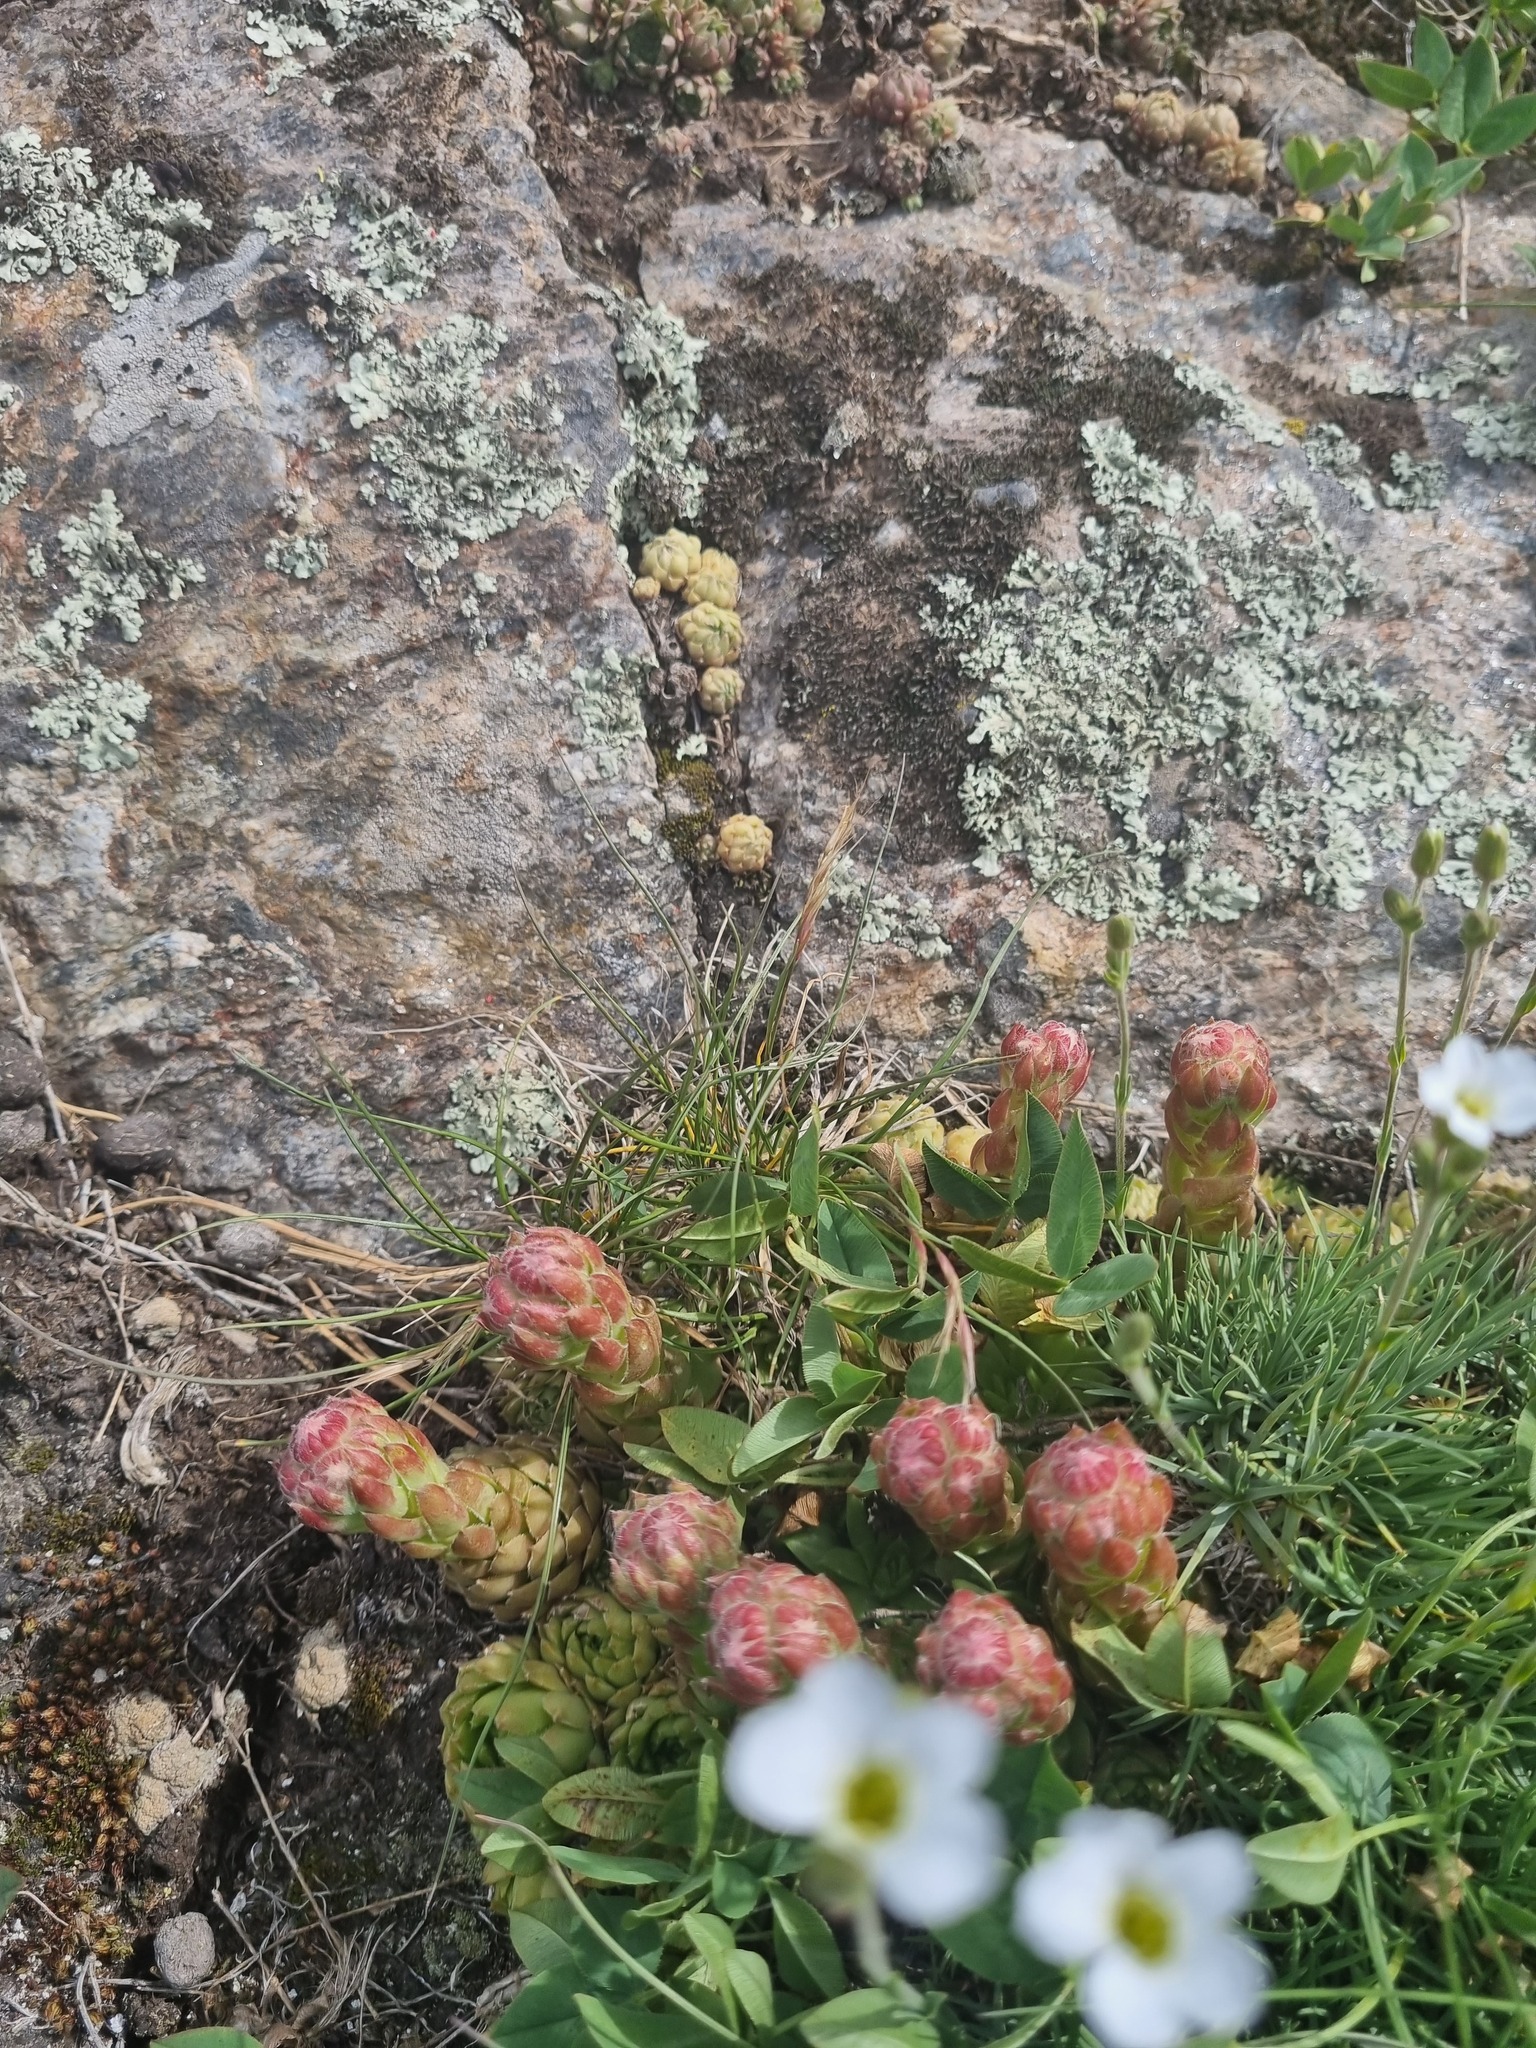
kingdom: Plantae
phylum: Tracheophyta
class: Magnoliopsida
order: Saxifragales
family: Crassulaceae
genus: Sempervivum
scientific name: Sempervivum caucasicum
